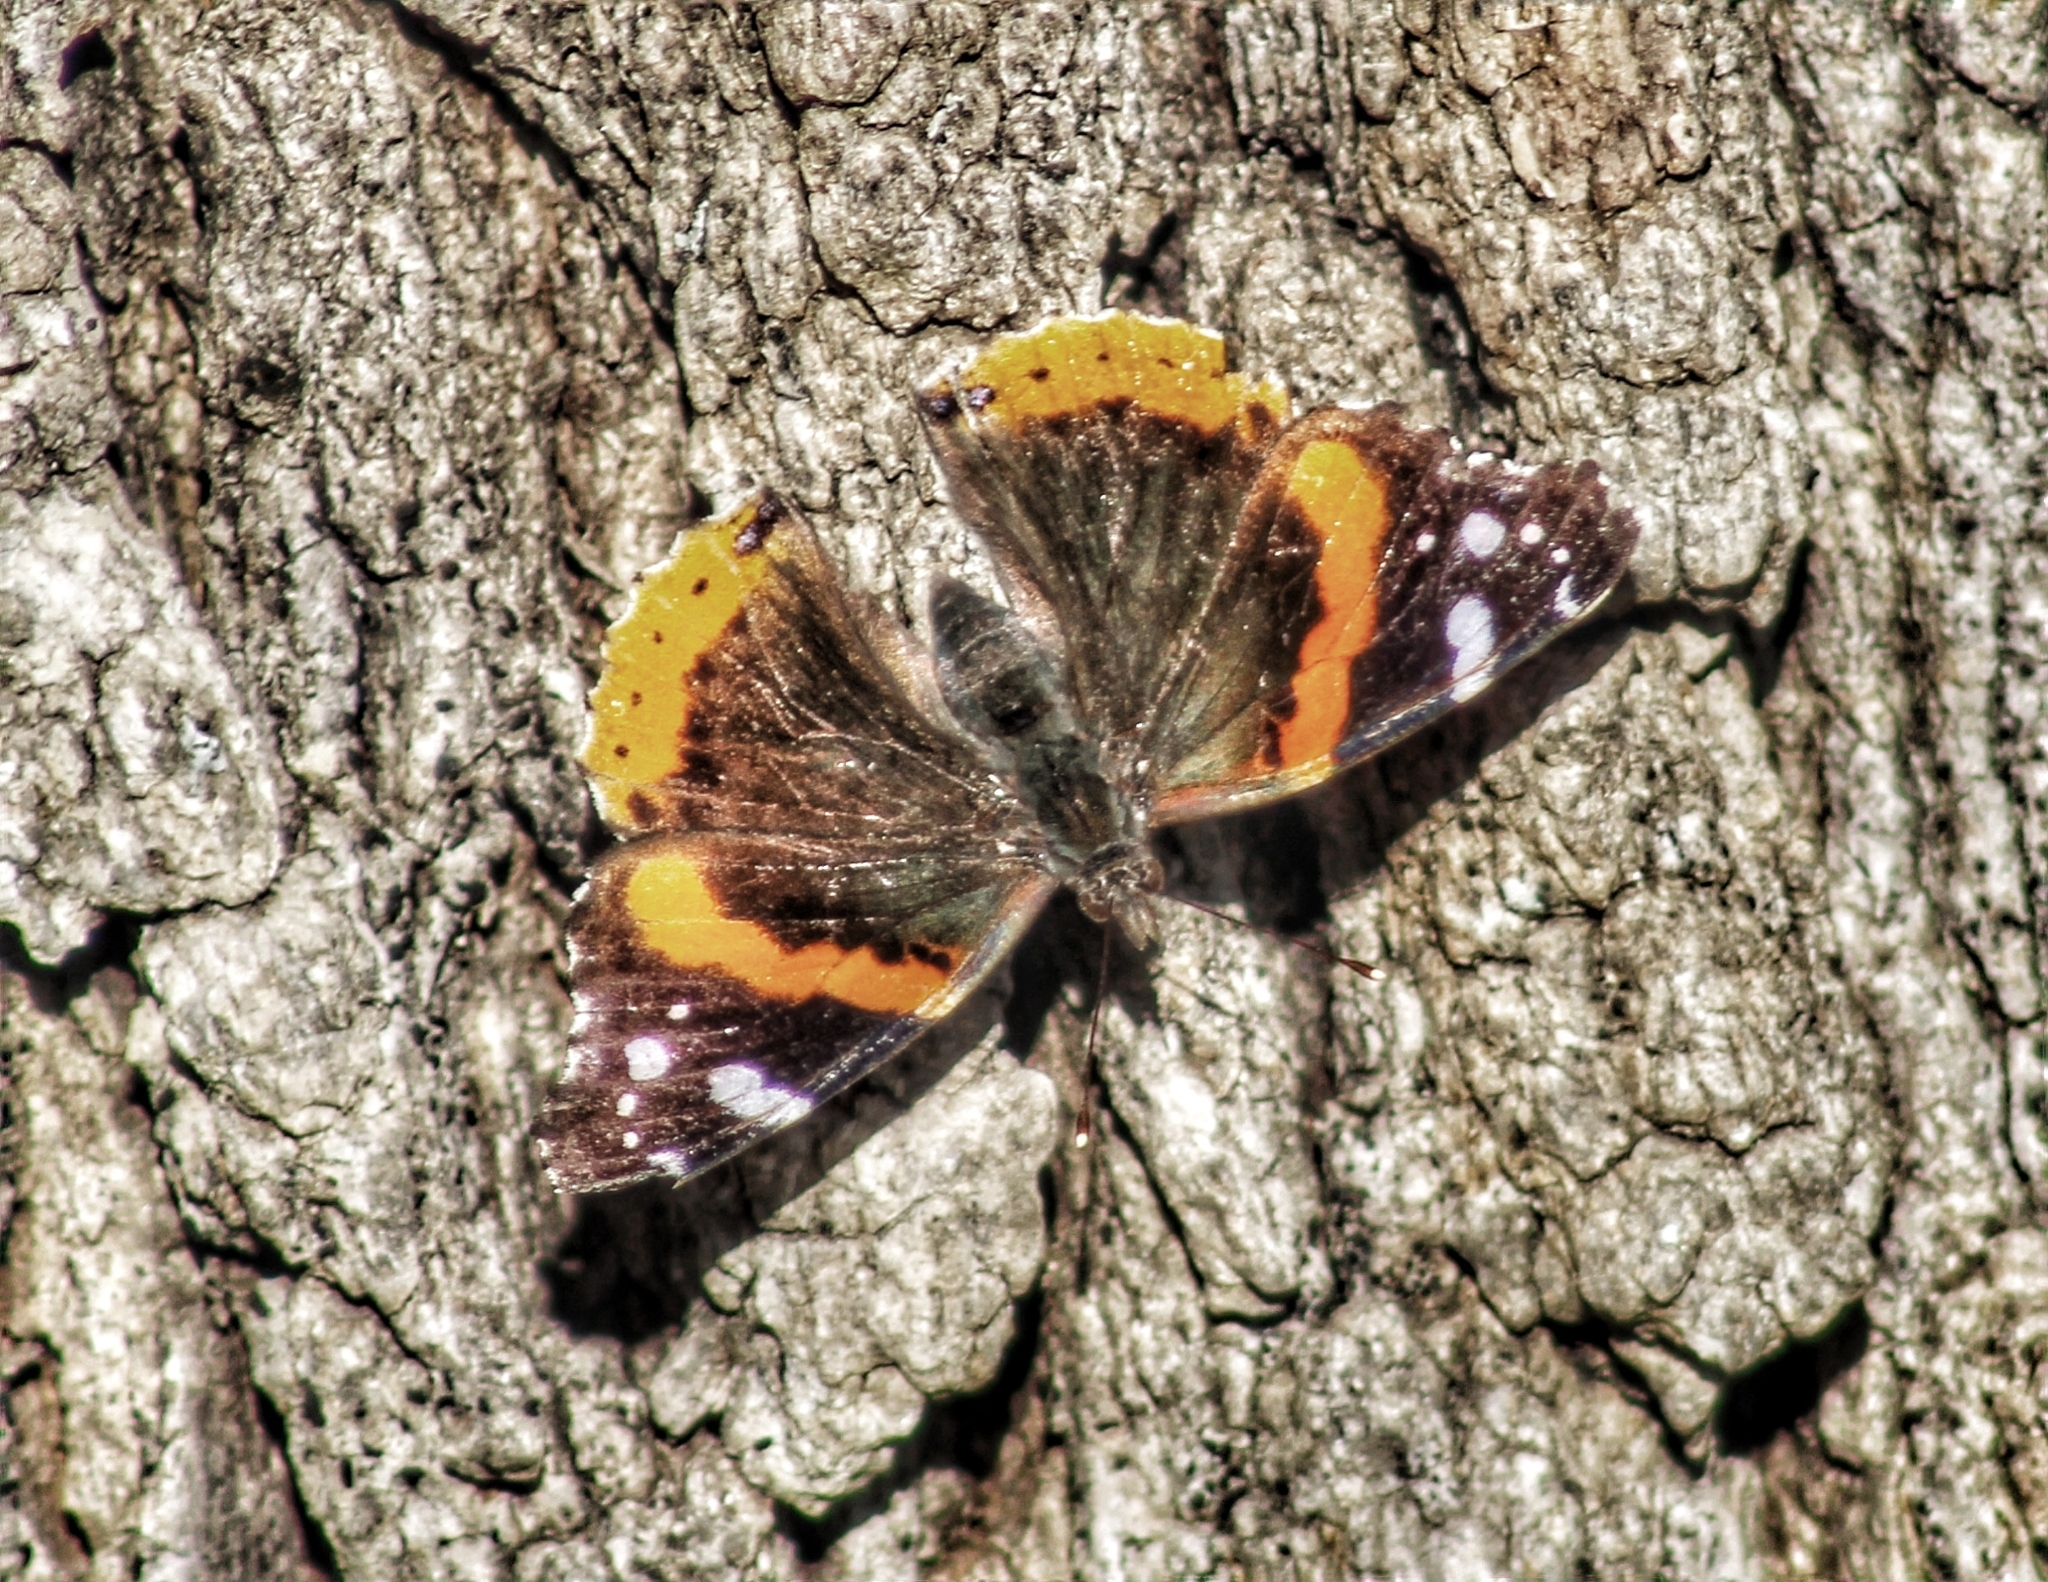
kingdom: Animalia
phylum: Arthropoda
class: Insecta
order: Lepidoptera
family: Nymphalidae
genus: Vanessa
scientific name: Vanessa atalanta
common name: Red admiral
